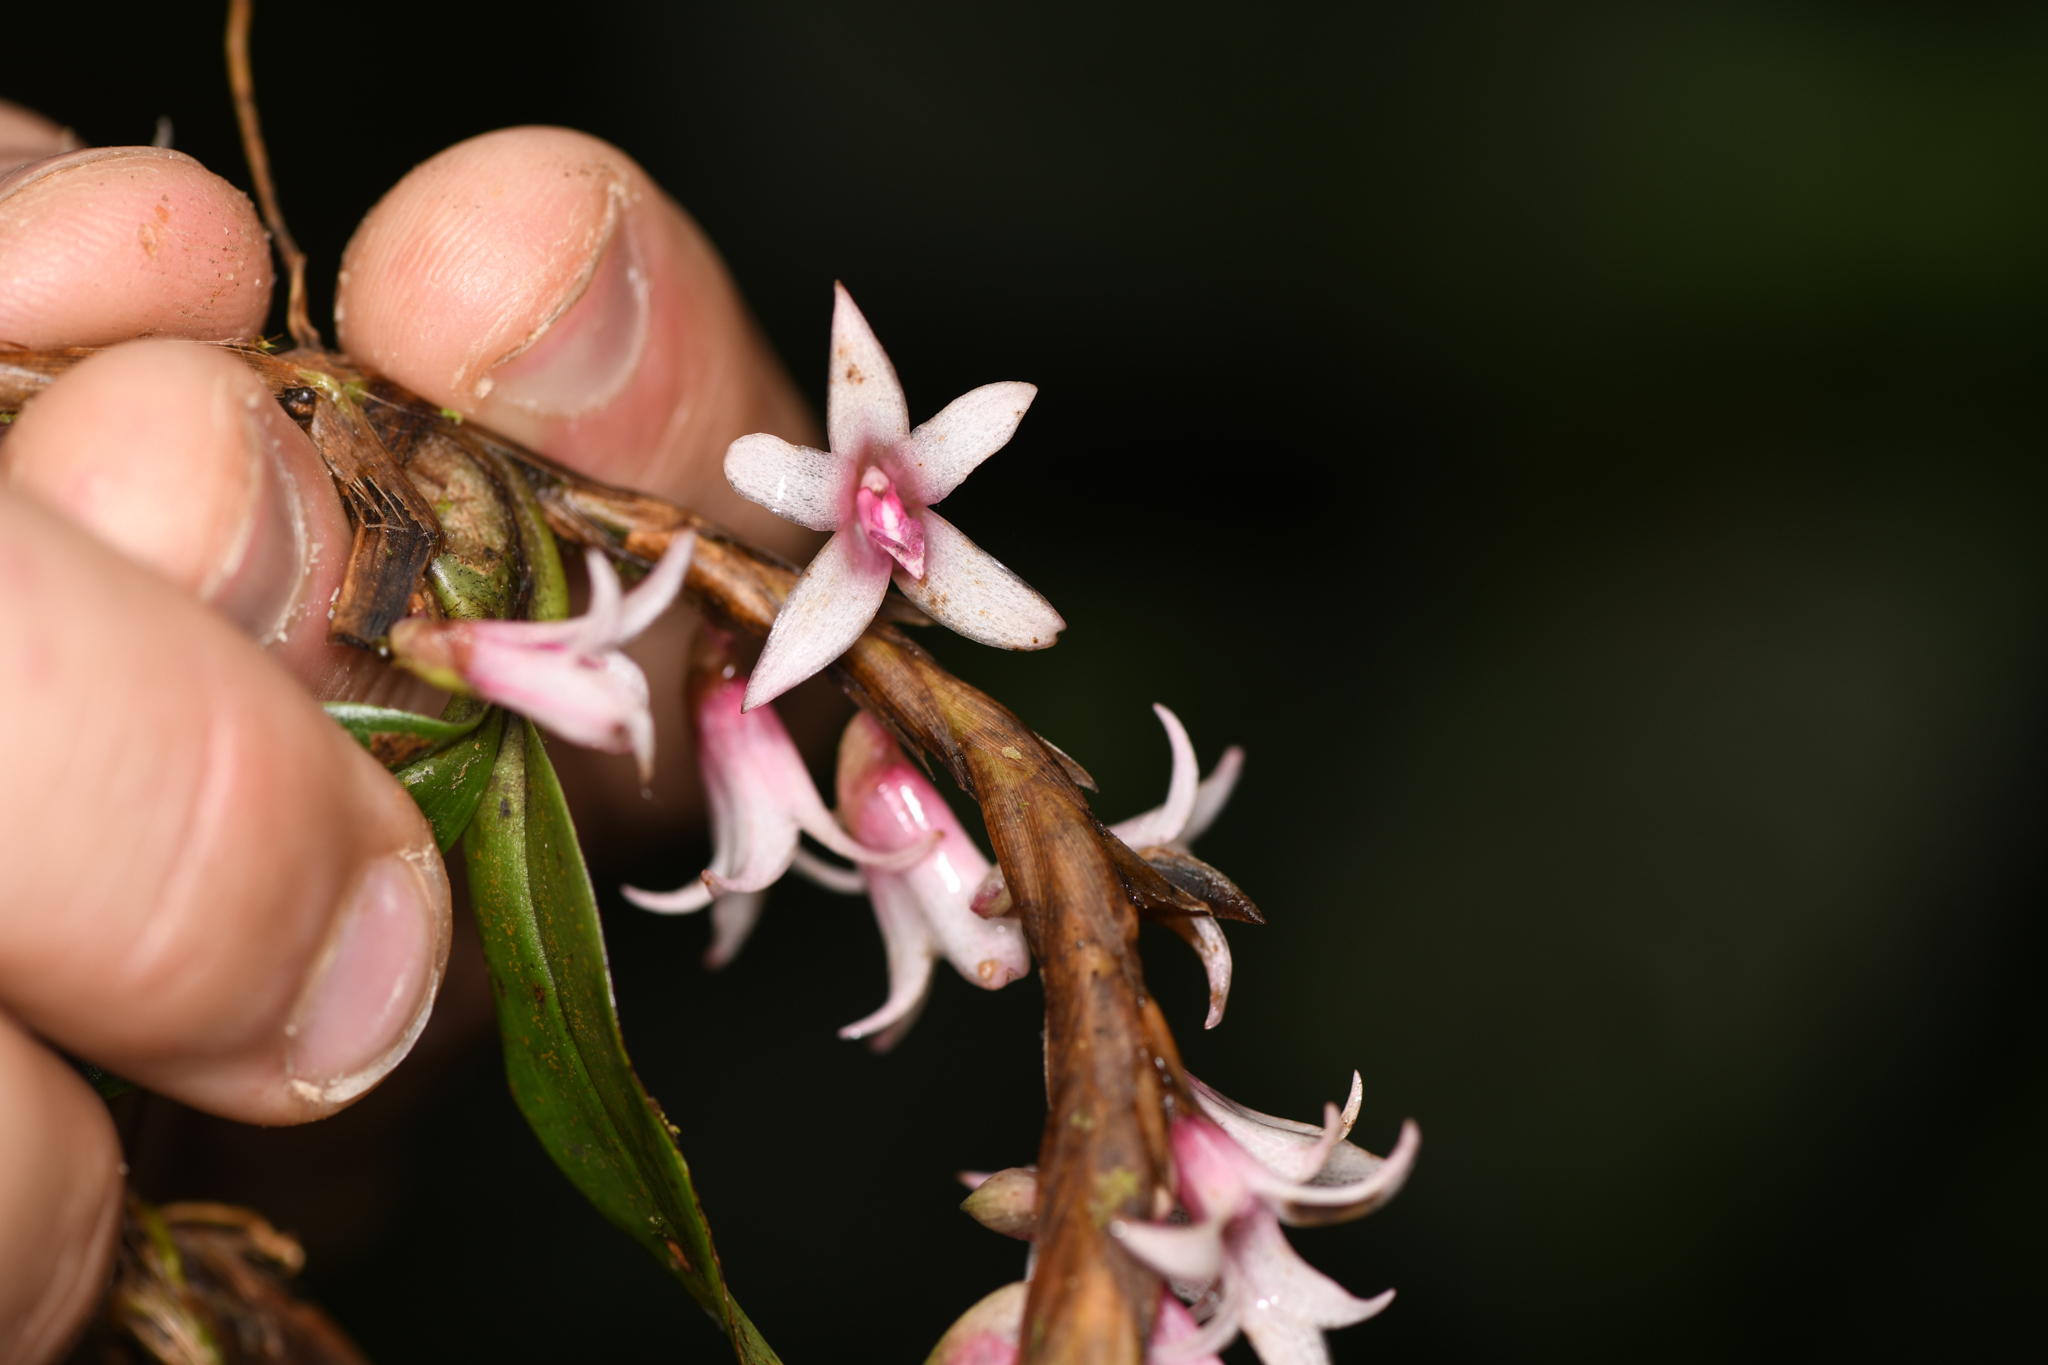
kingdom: Plantae
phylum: Tracheophyta
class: Liliopsida
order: Asparagales
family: Orchidaceae
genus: Maxillaria
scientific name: Maxillaria schlechteriana
